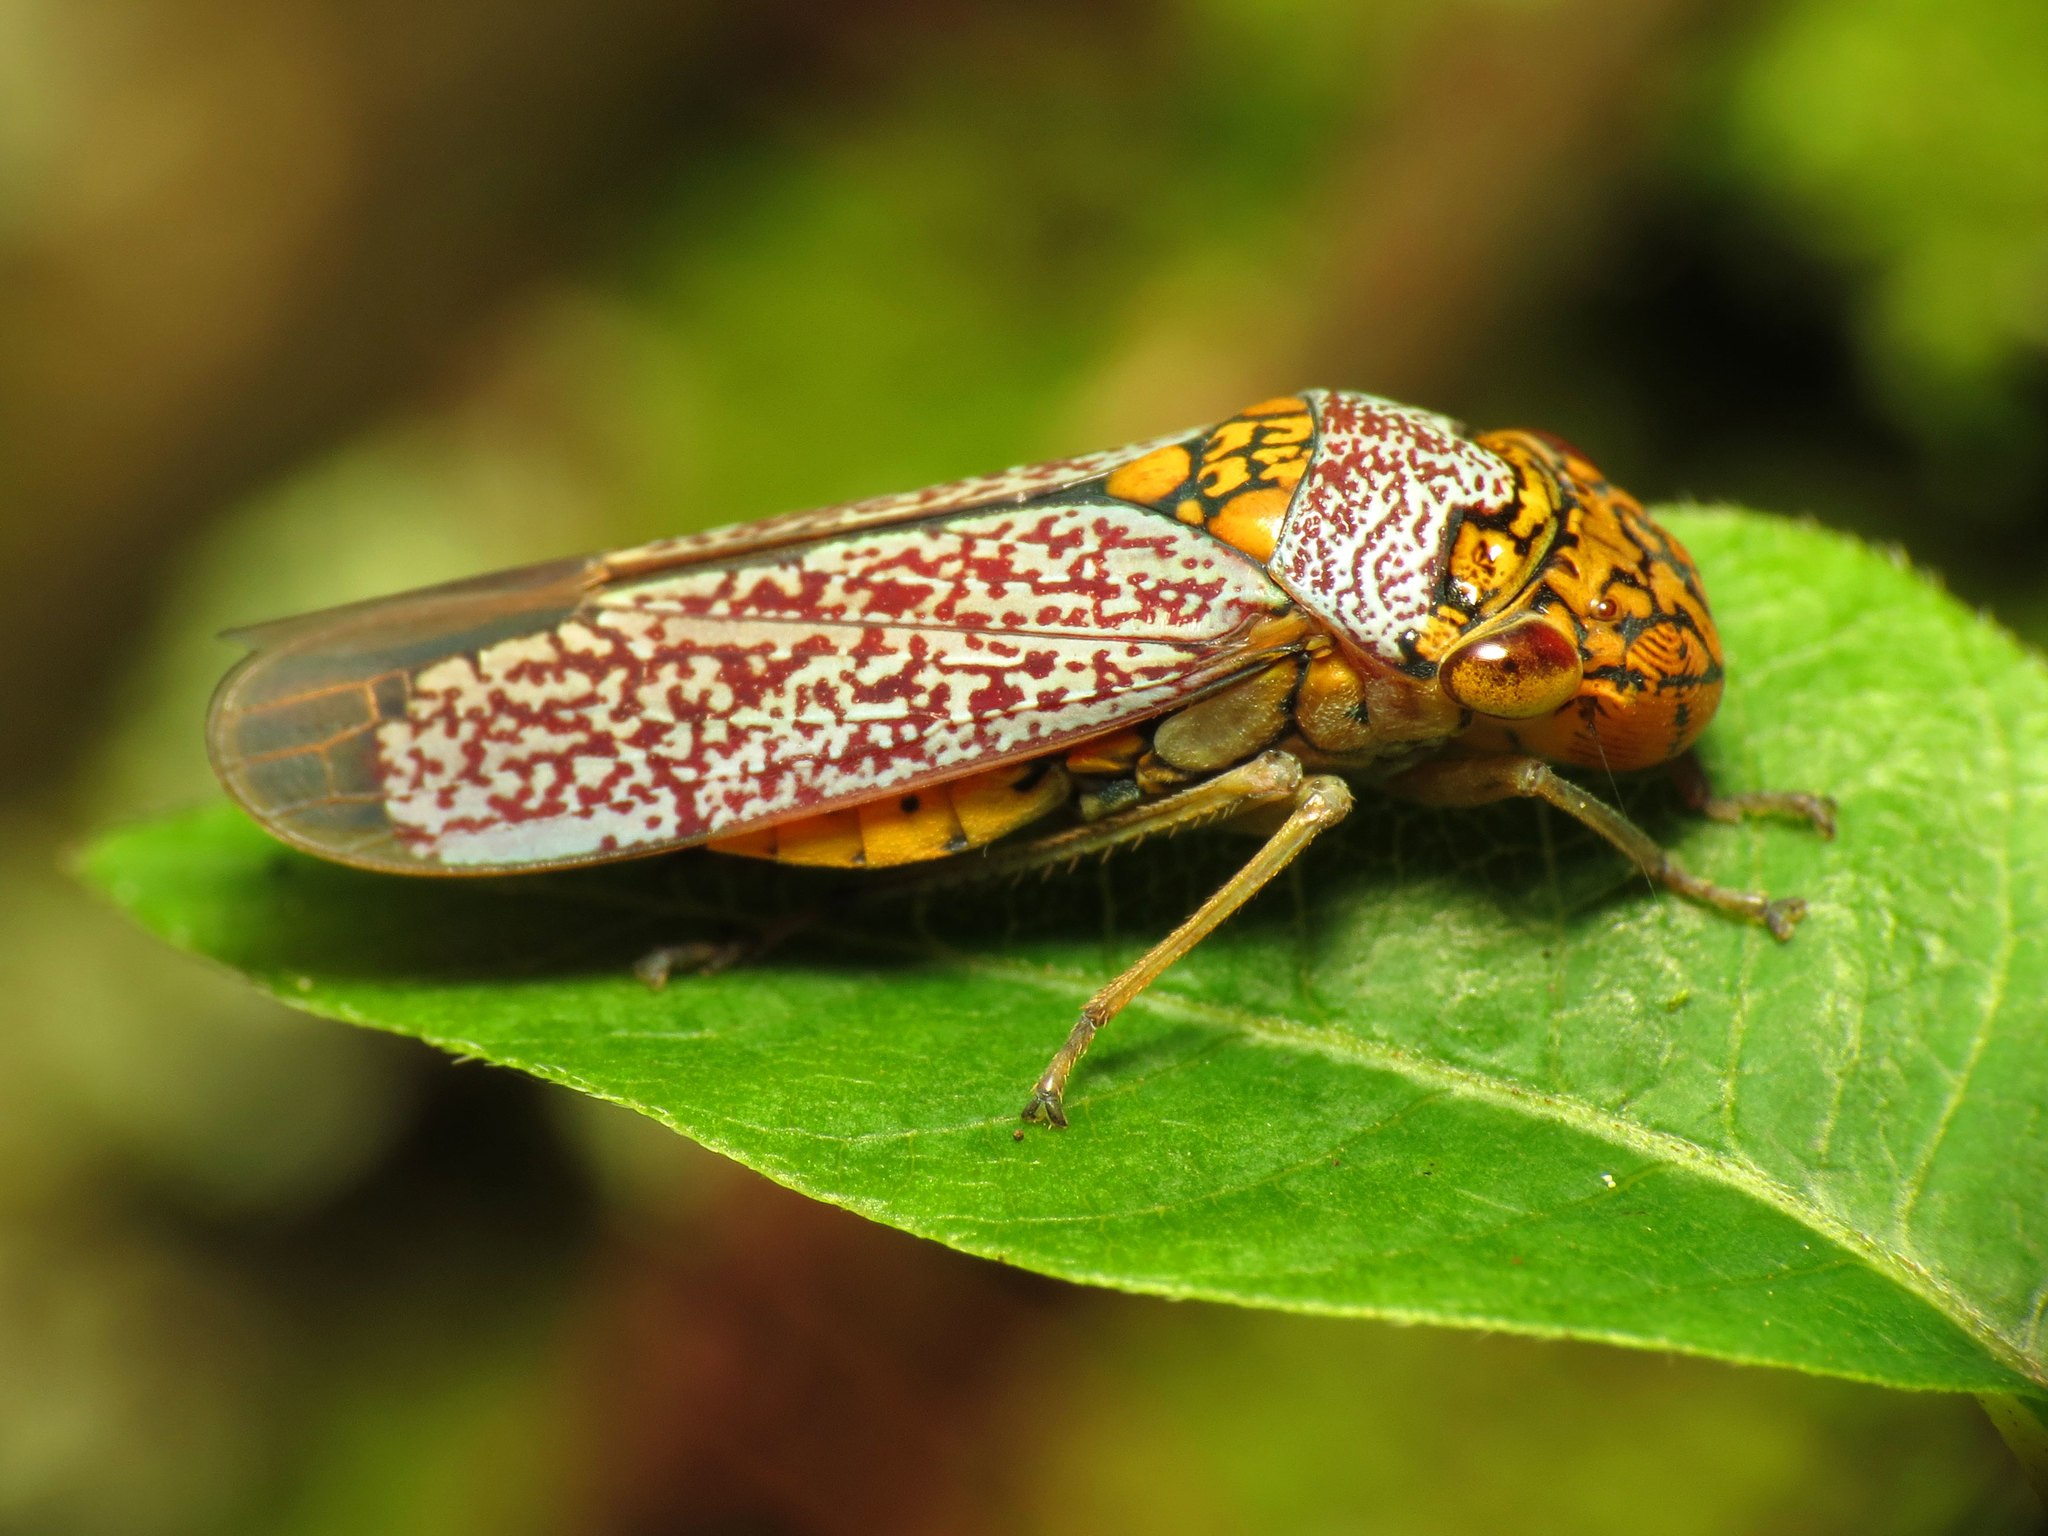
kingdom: Animalia
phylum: Arthropoda
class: Insecta
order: Hemiptera
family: Cicadellidae
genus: Oncometopia
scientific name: Oncometopia orbona
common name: Broad-headed sharpshooter
